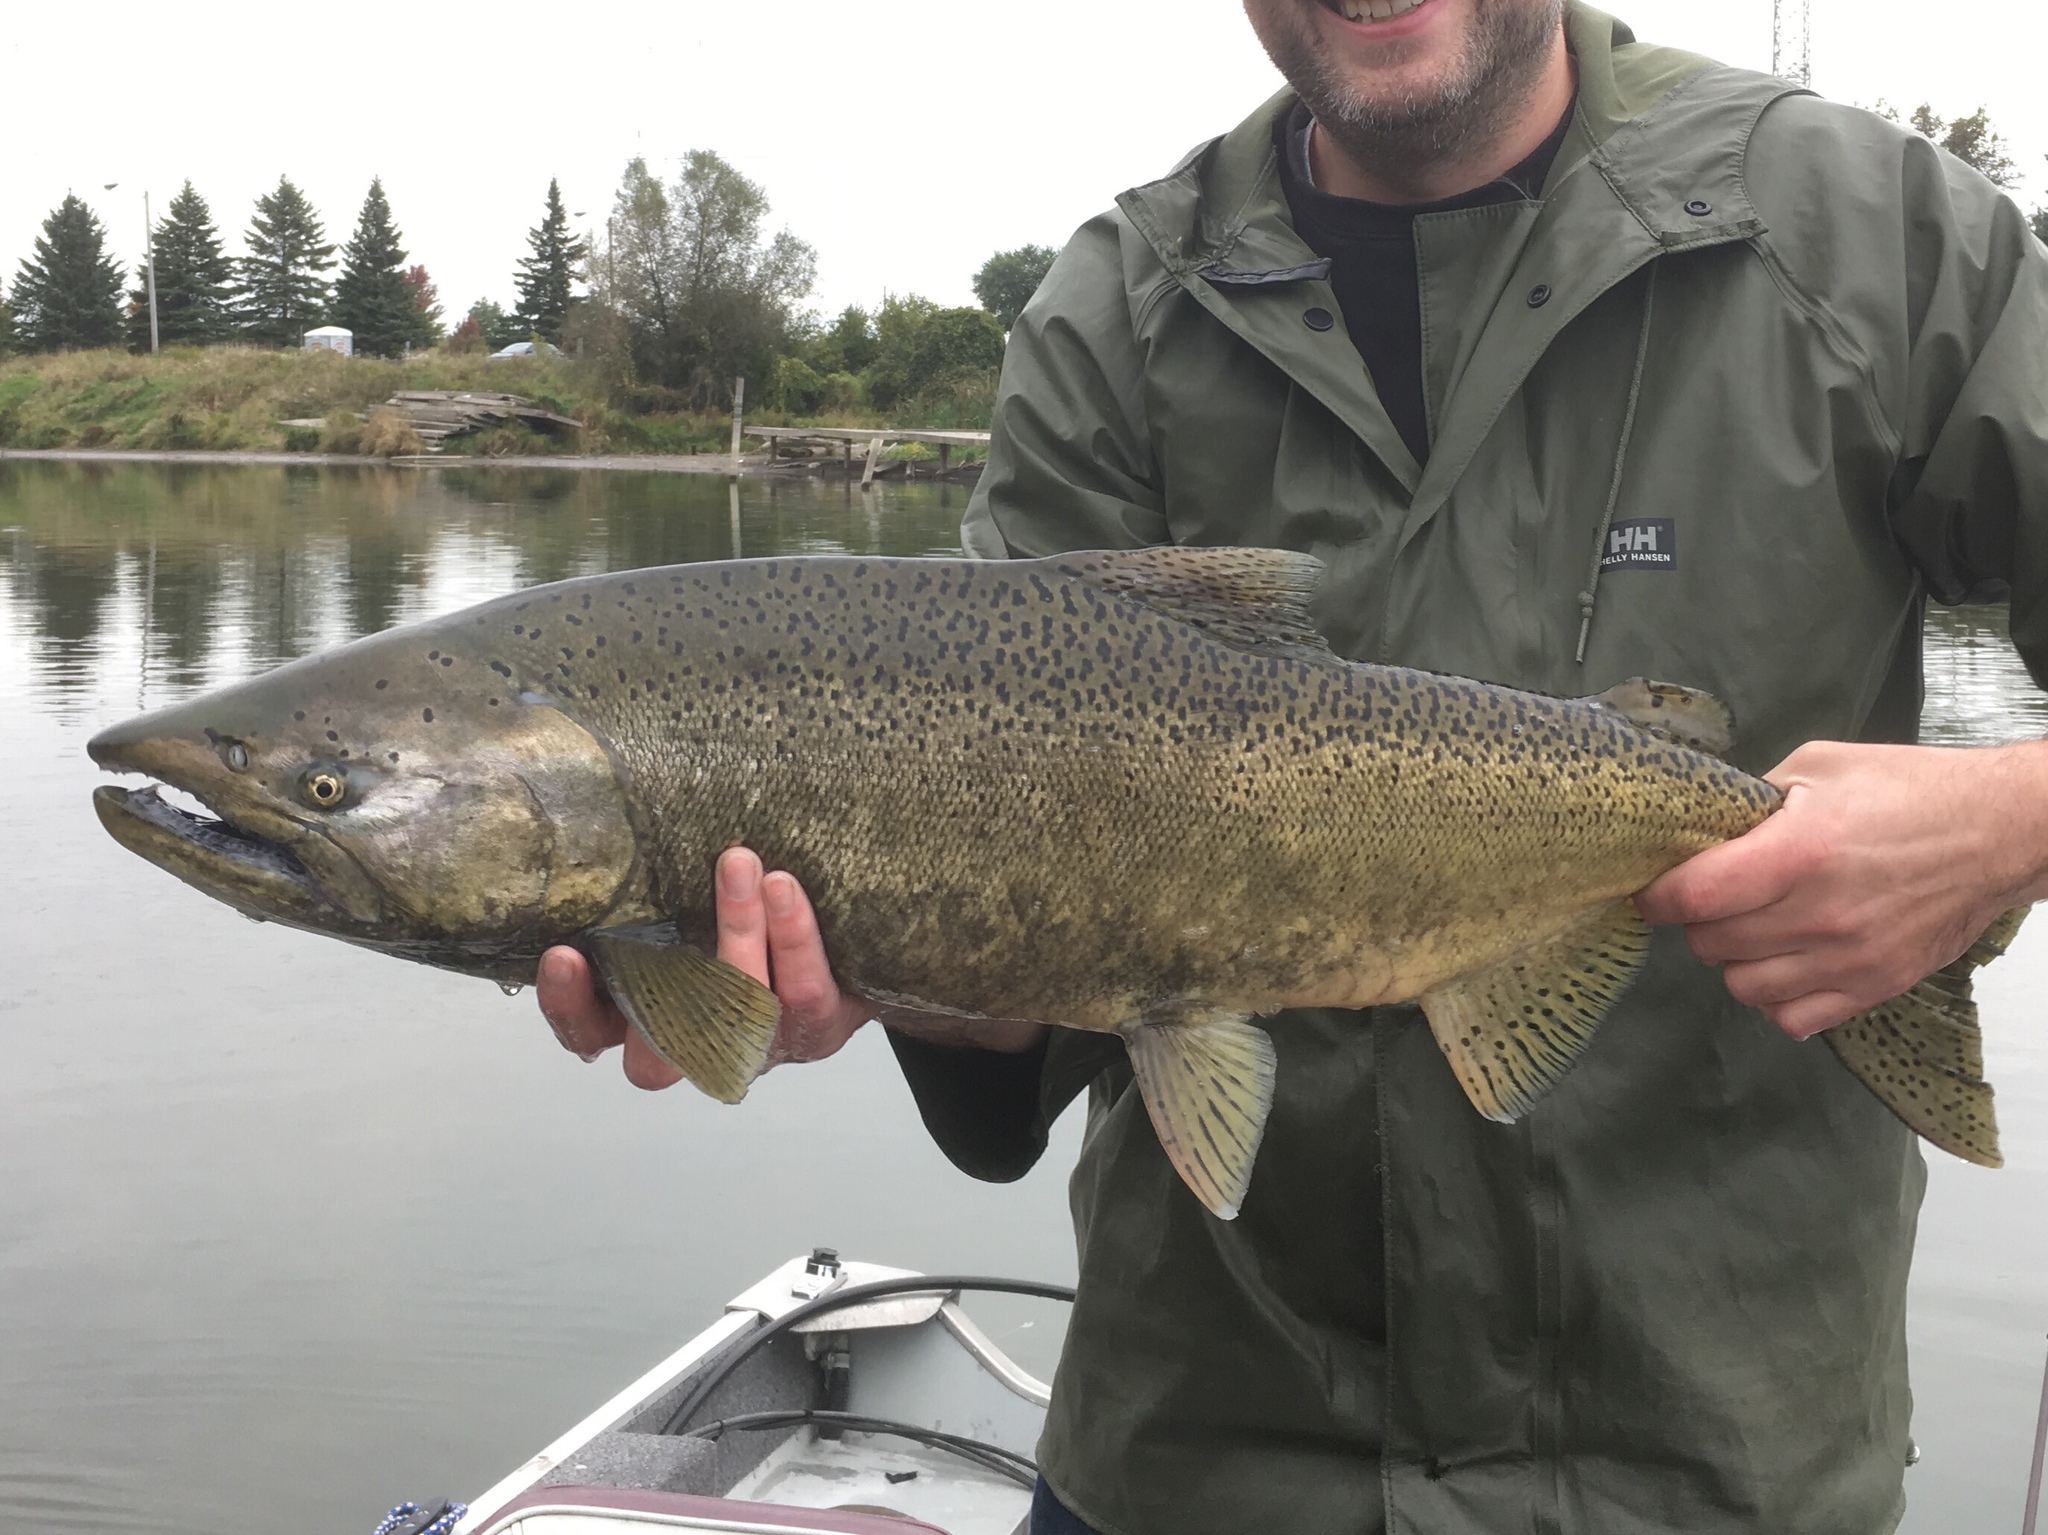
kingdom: Animalia
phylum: Chordata
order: Salmoniformes
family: Salmonidae
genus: Oncorhynchus
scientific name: Oncorhynchus tshawytscha
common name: Chinook salmon
